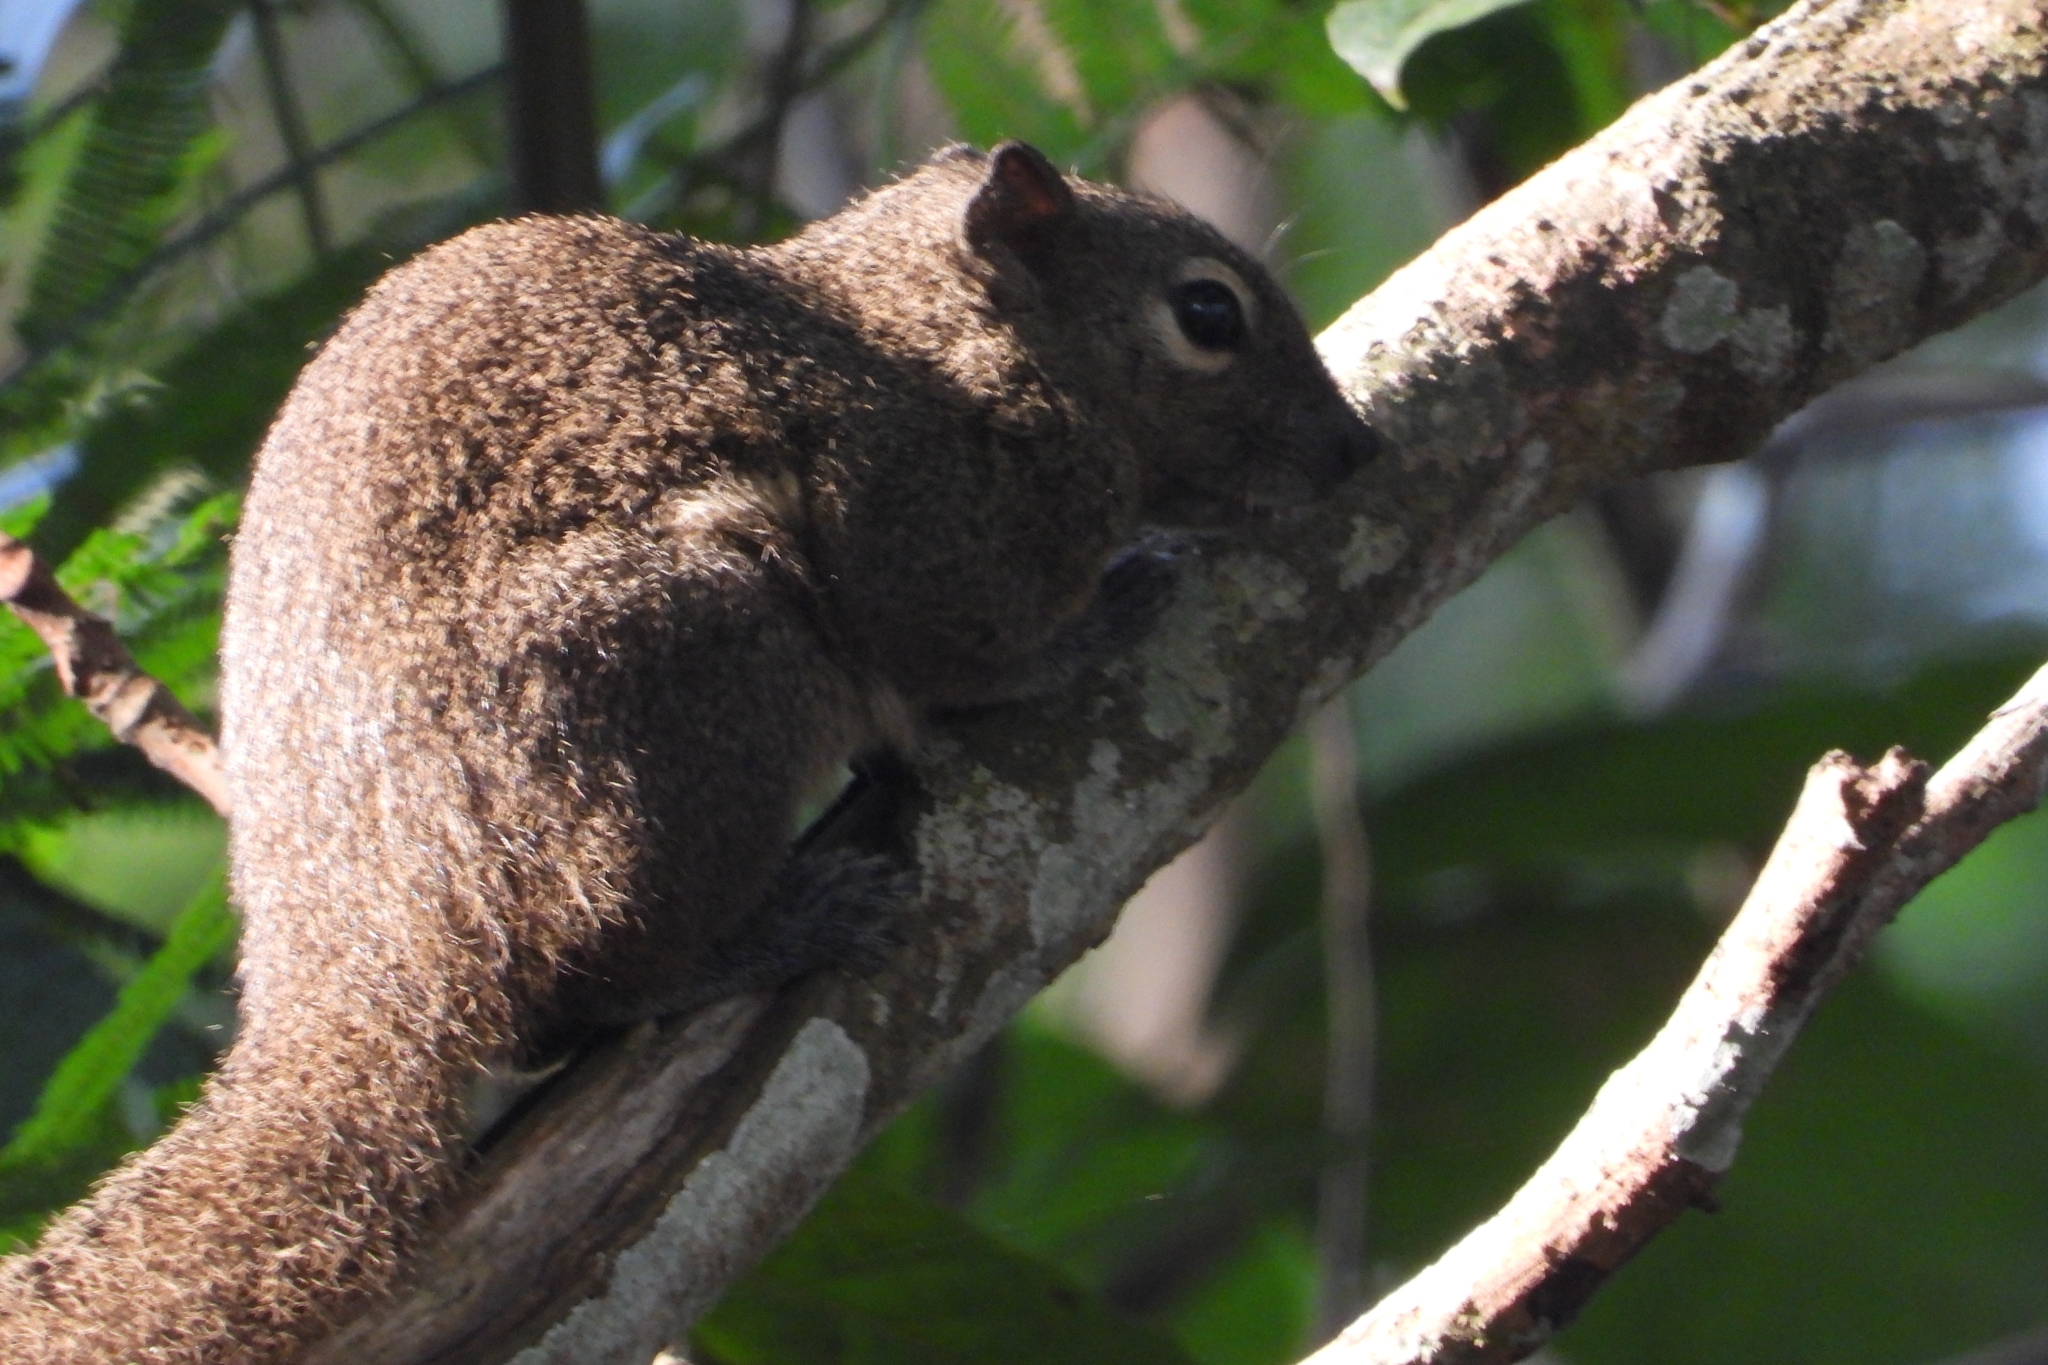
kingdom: Animalia
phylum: Chordata
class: Mammalia
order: Rodentia
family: Sciuridae
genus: Callosciurus
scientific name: Callosciurus notatus
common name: Plantain squirrel
